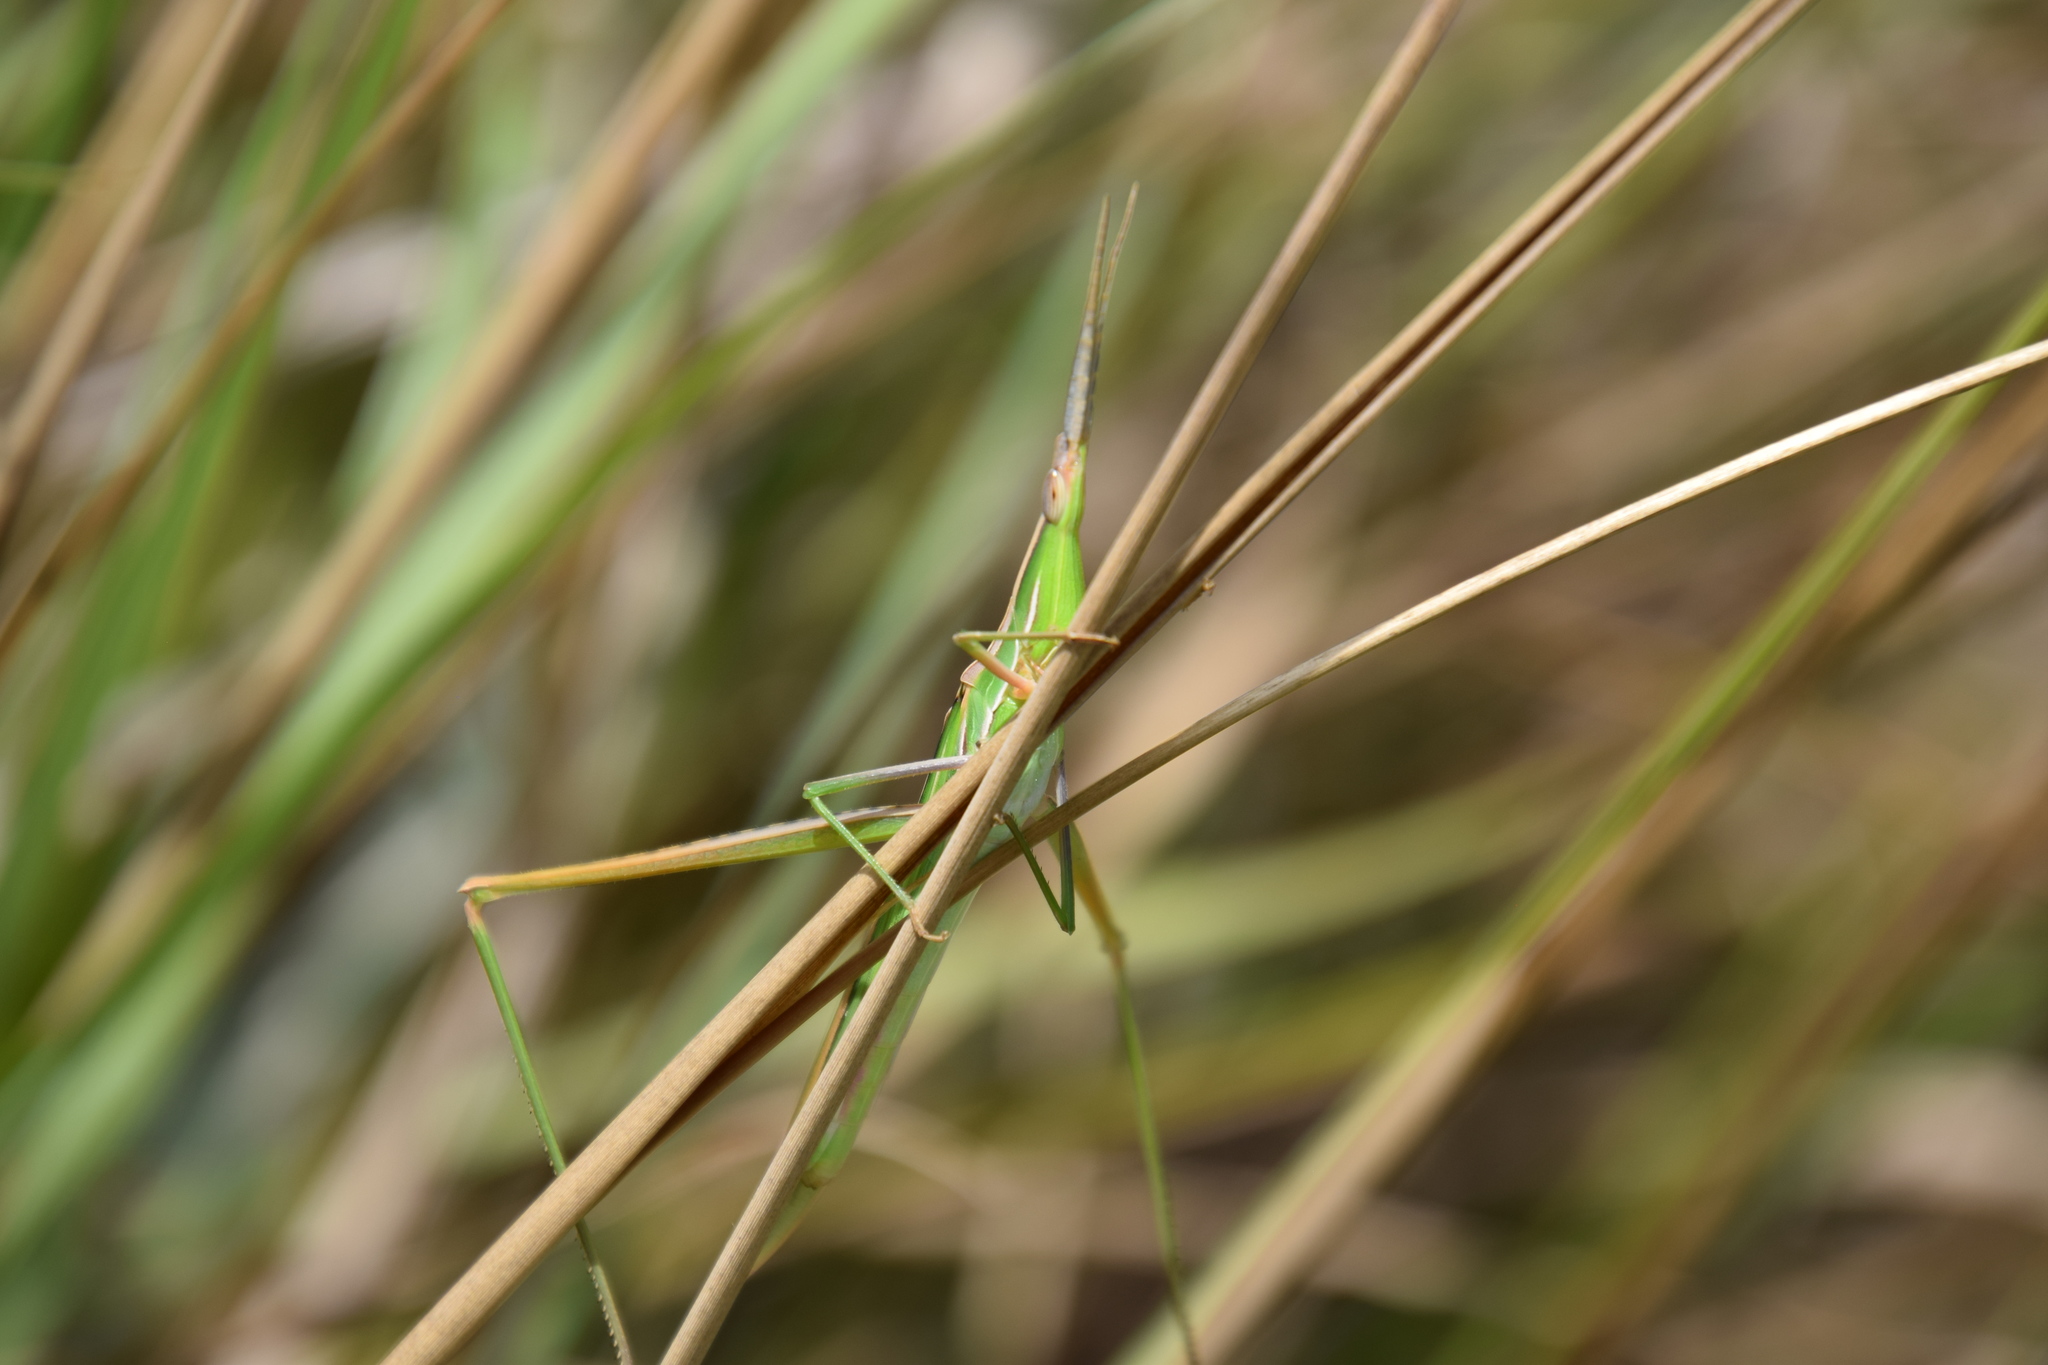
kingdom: Animalia
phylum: Arthropoda
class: Insecta
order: Orthoptera
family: Acrididae
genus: Acrida
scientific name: Acrida conica
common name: Giant green slantface
